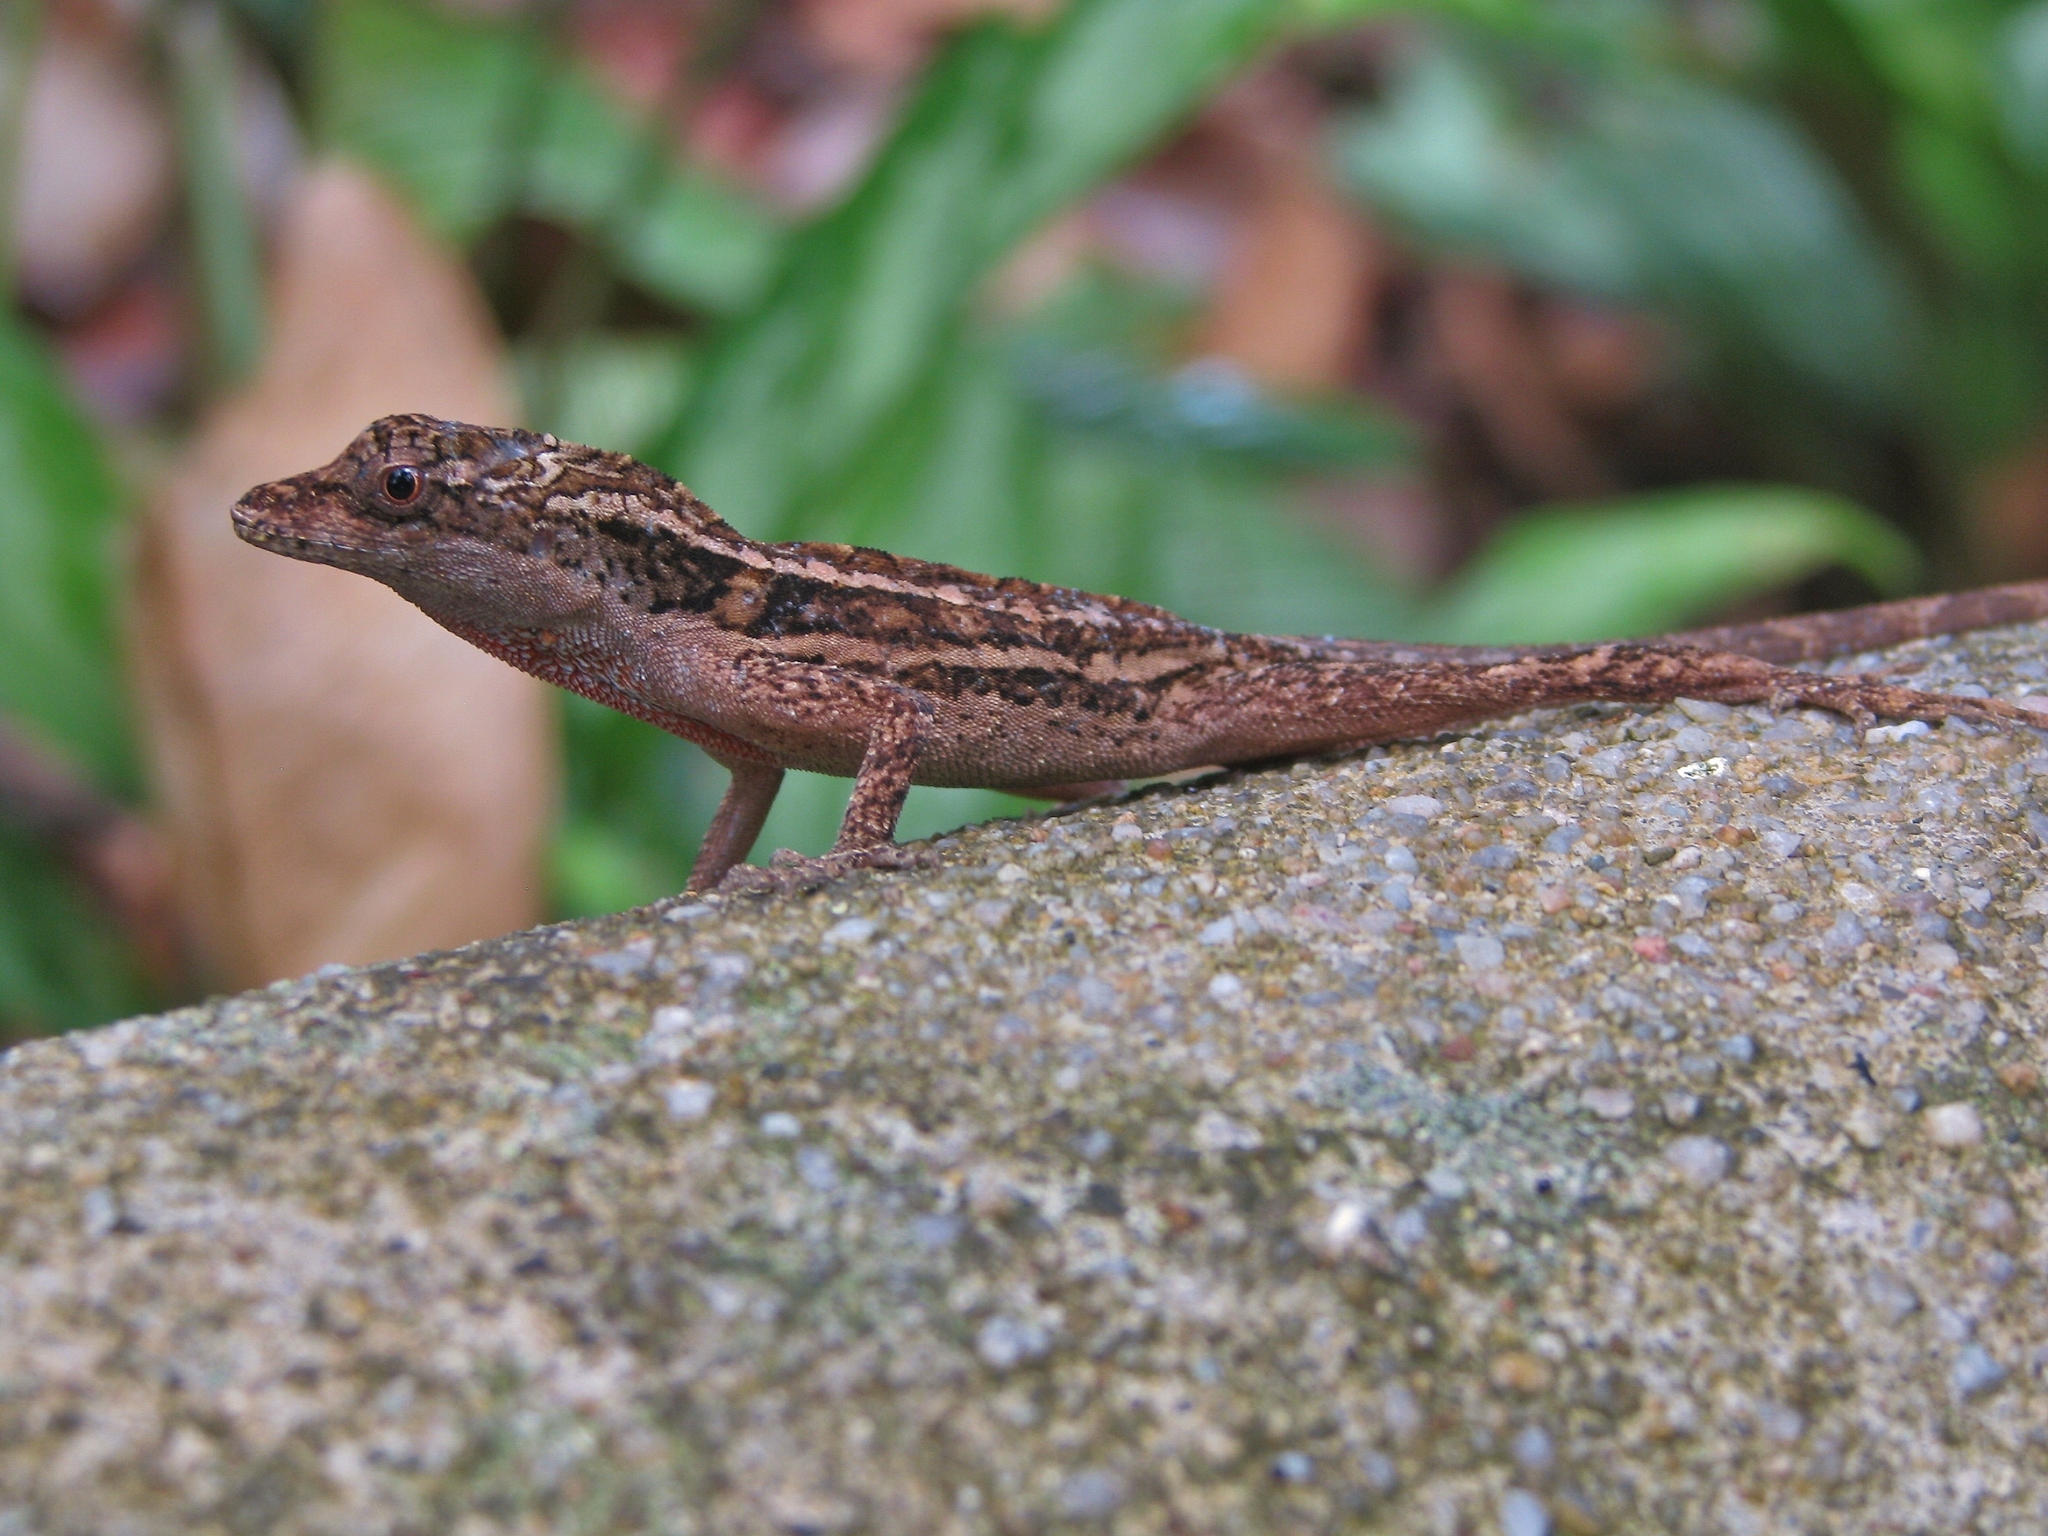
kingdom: Animalia
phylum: Chordata
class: Squamata
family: Dactyloidae
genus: Anolis
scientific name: Anolis lemurinus
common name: Ghost anole
